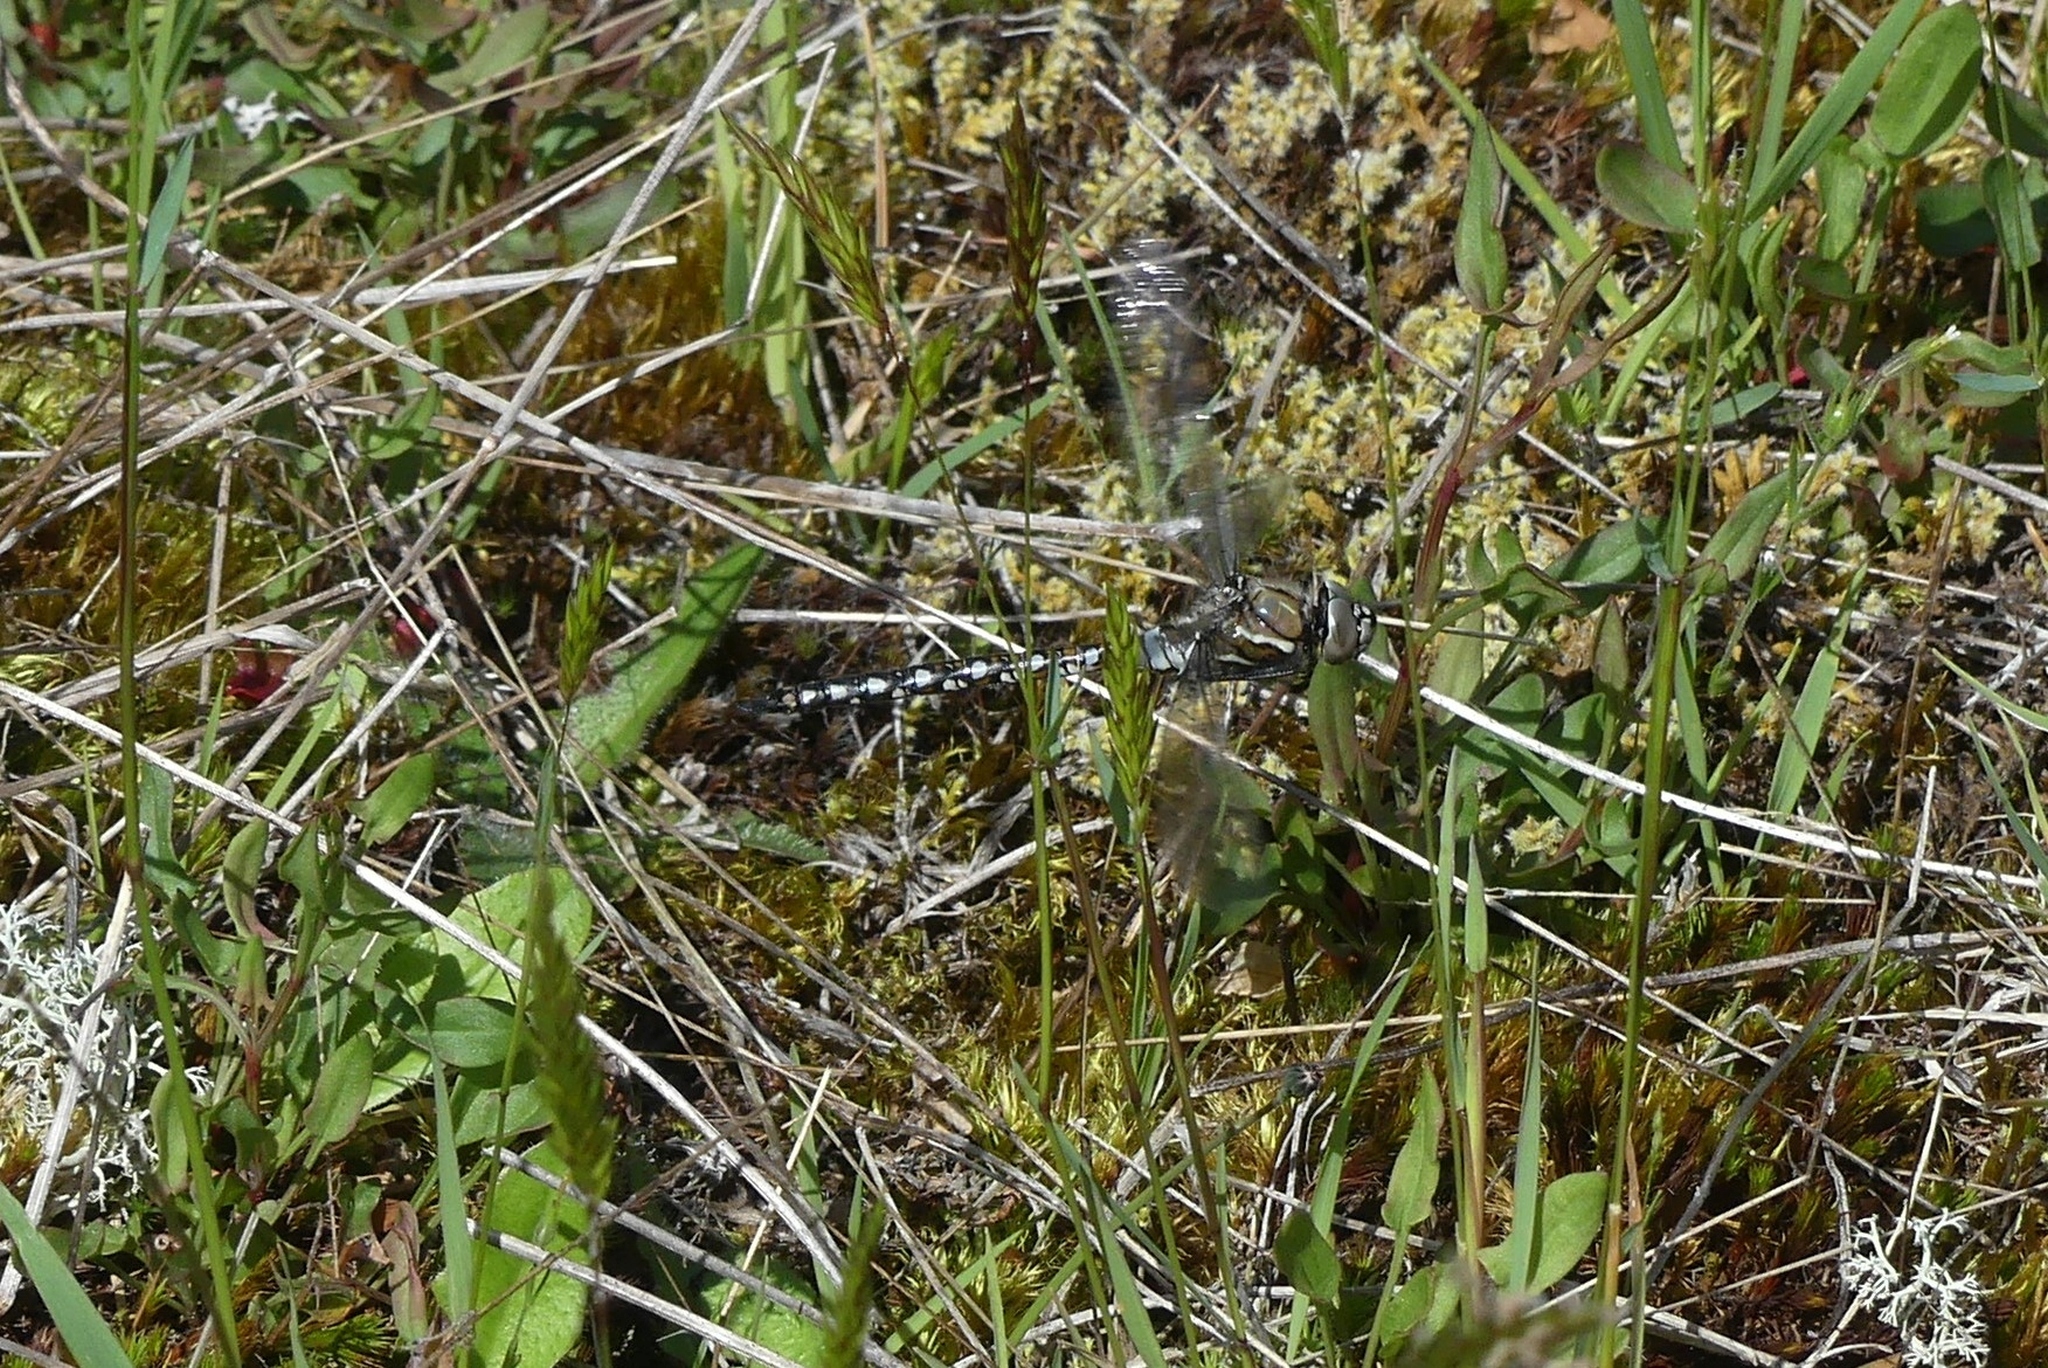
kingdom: Animalia
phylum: Arthropoda
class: Insecta
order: Odonata
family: Aeshnidae
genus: Rhionaeschna
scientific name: Rhionaeschna californica
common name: California darner
